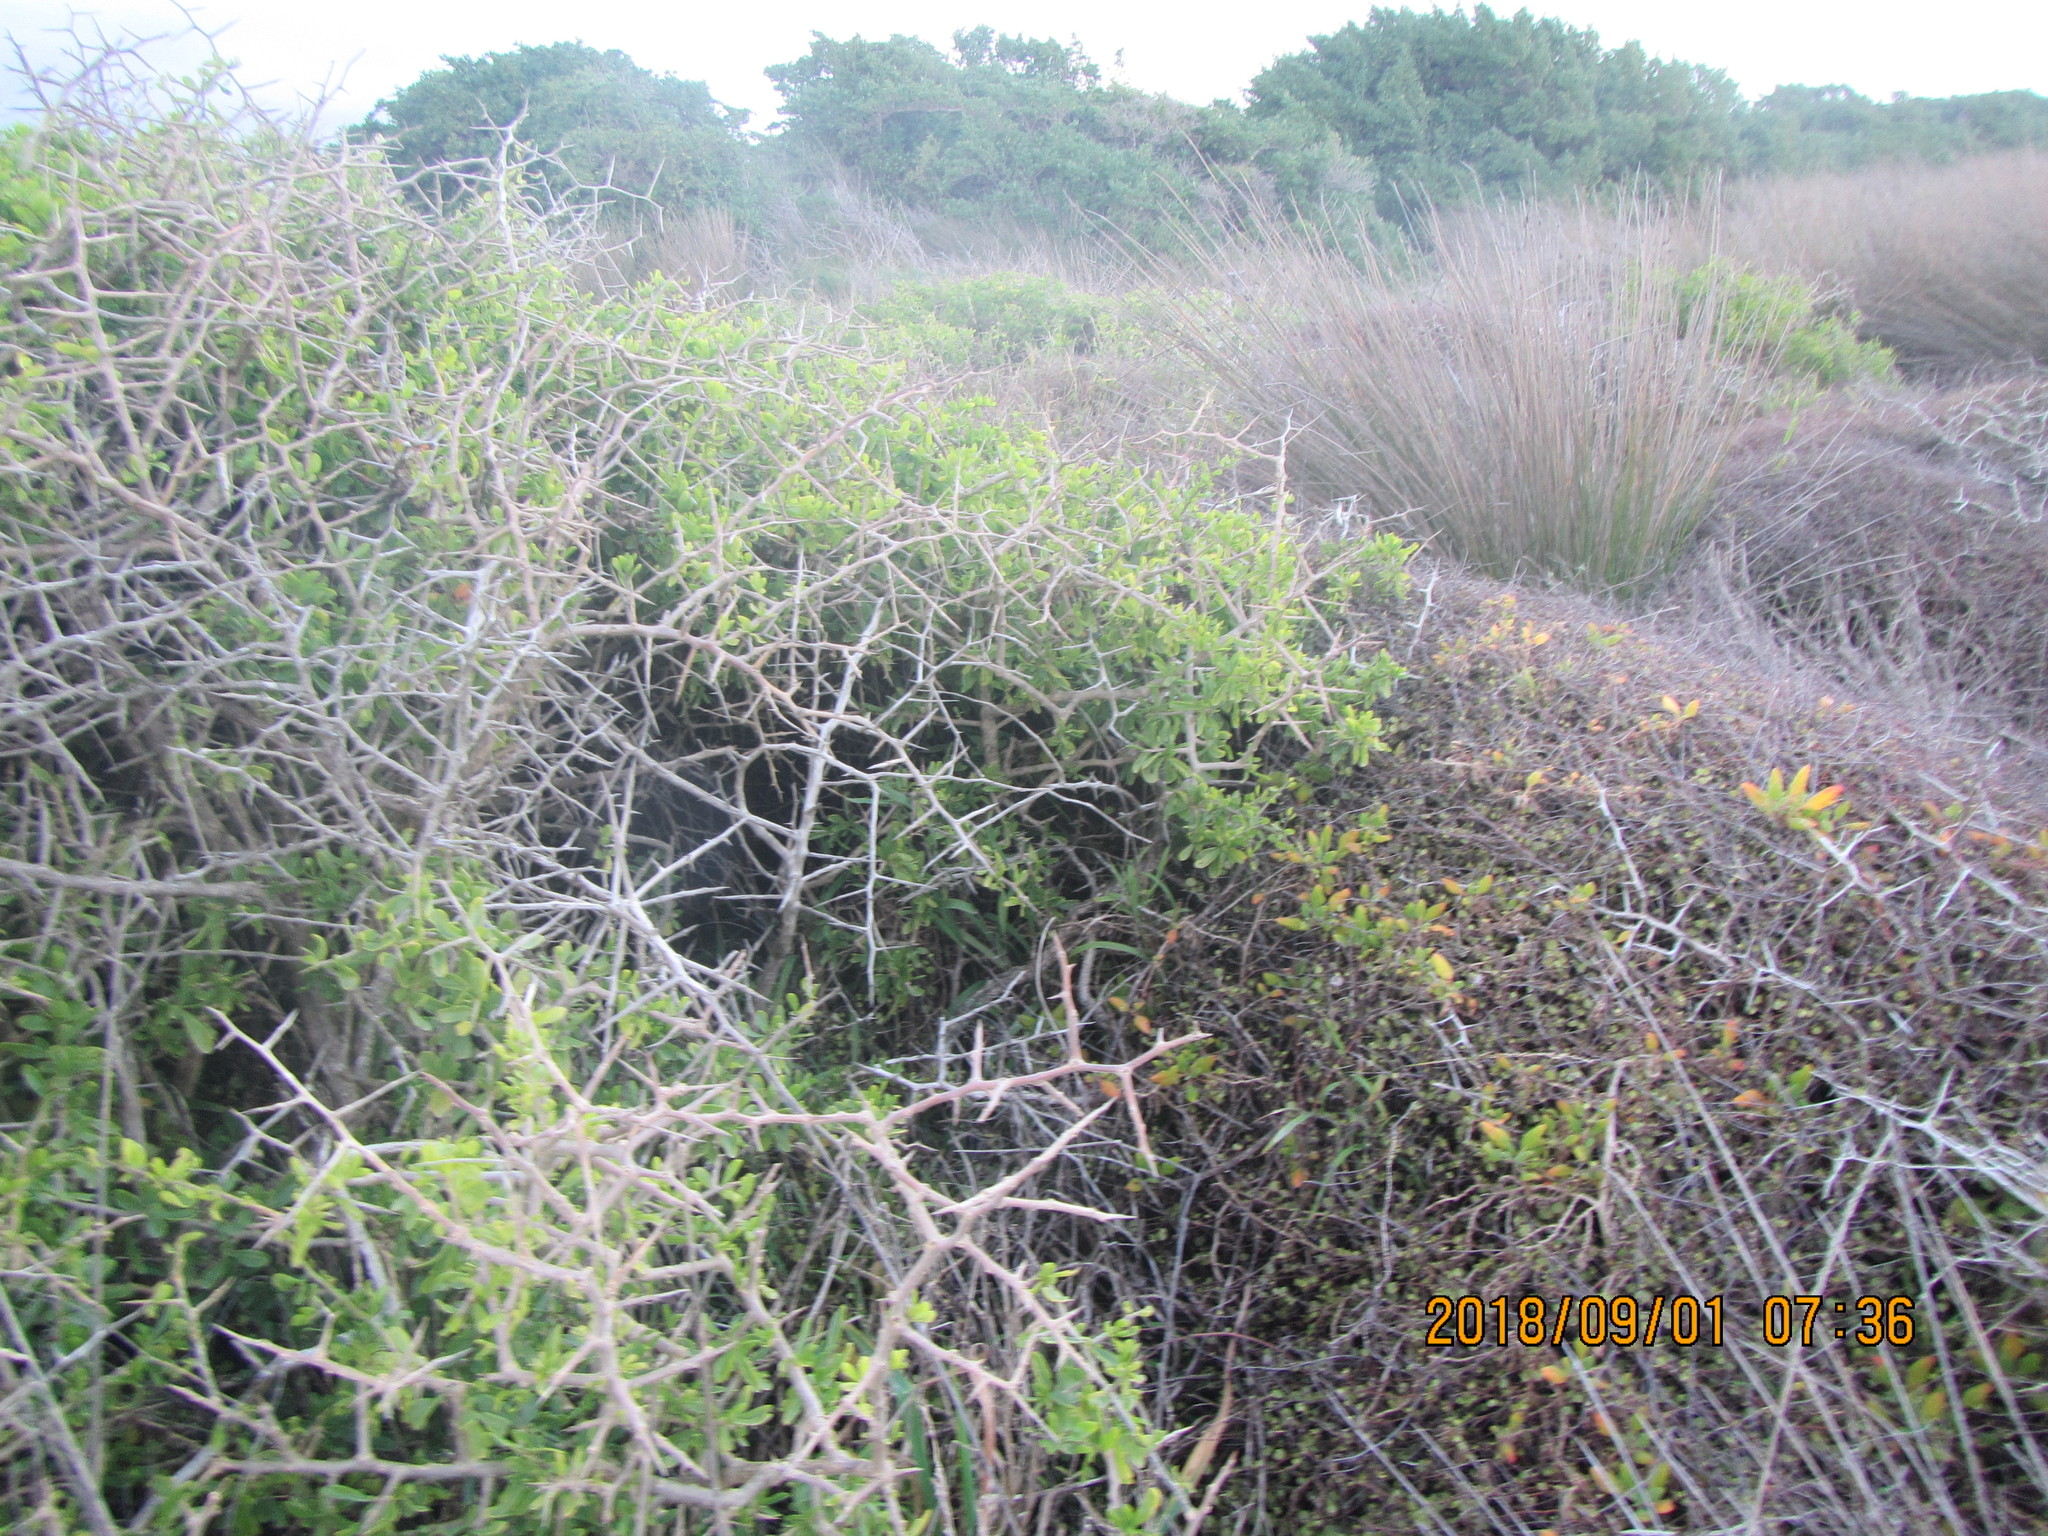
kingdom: Plantae
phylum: Tracheophyta
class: Magnoliopsida
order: Solanales
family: Solanaceae
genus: Lycium
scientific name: Lycium ferocissimum
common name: African boxthorn
